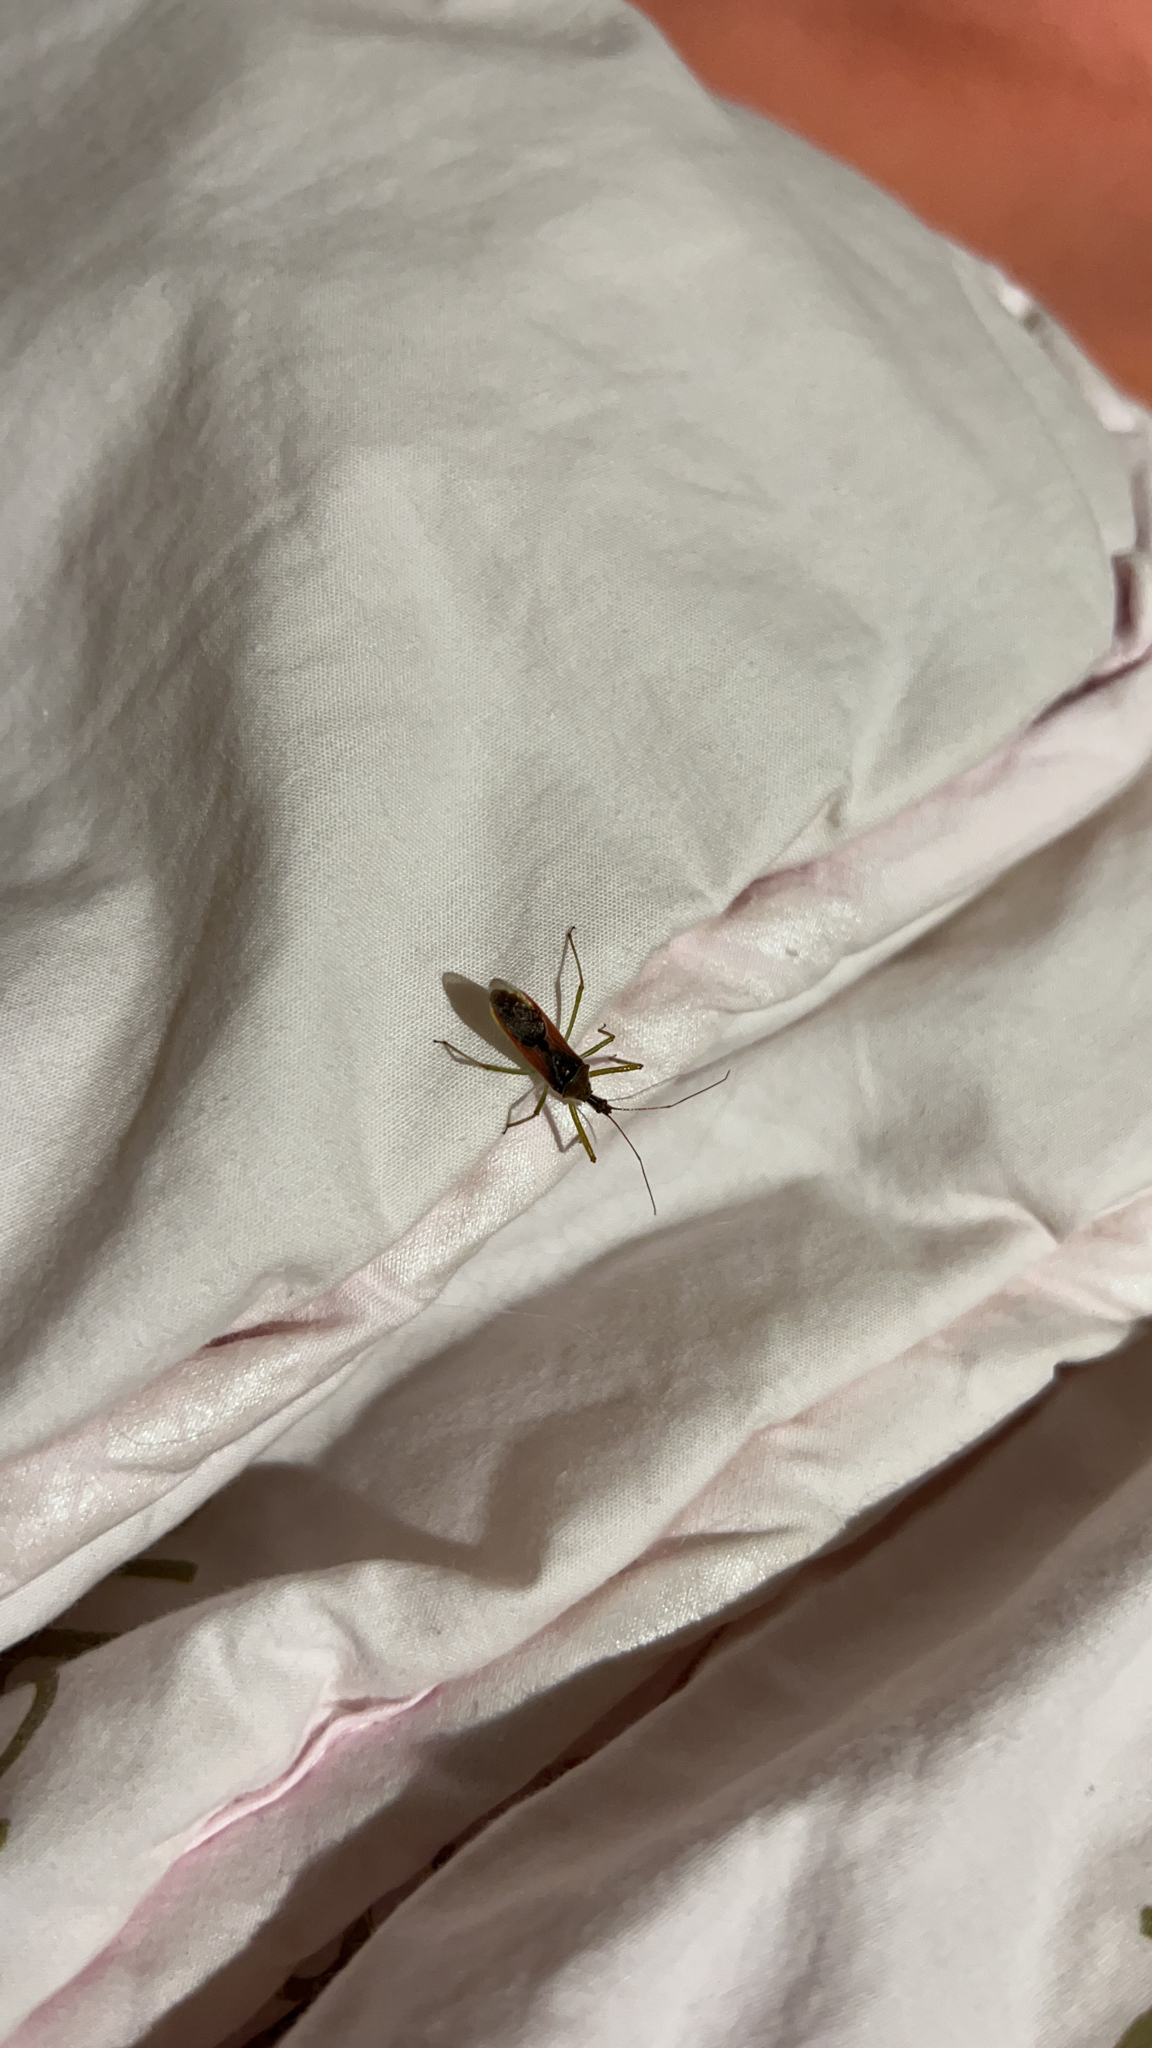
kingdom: Animalia
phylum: Arthropoda
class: Insecta
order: Hemiptera
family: Reduviidae
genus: Zelus
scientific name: Zelus renardii
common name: Assassin bug
